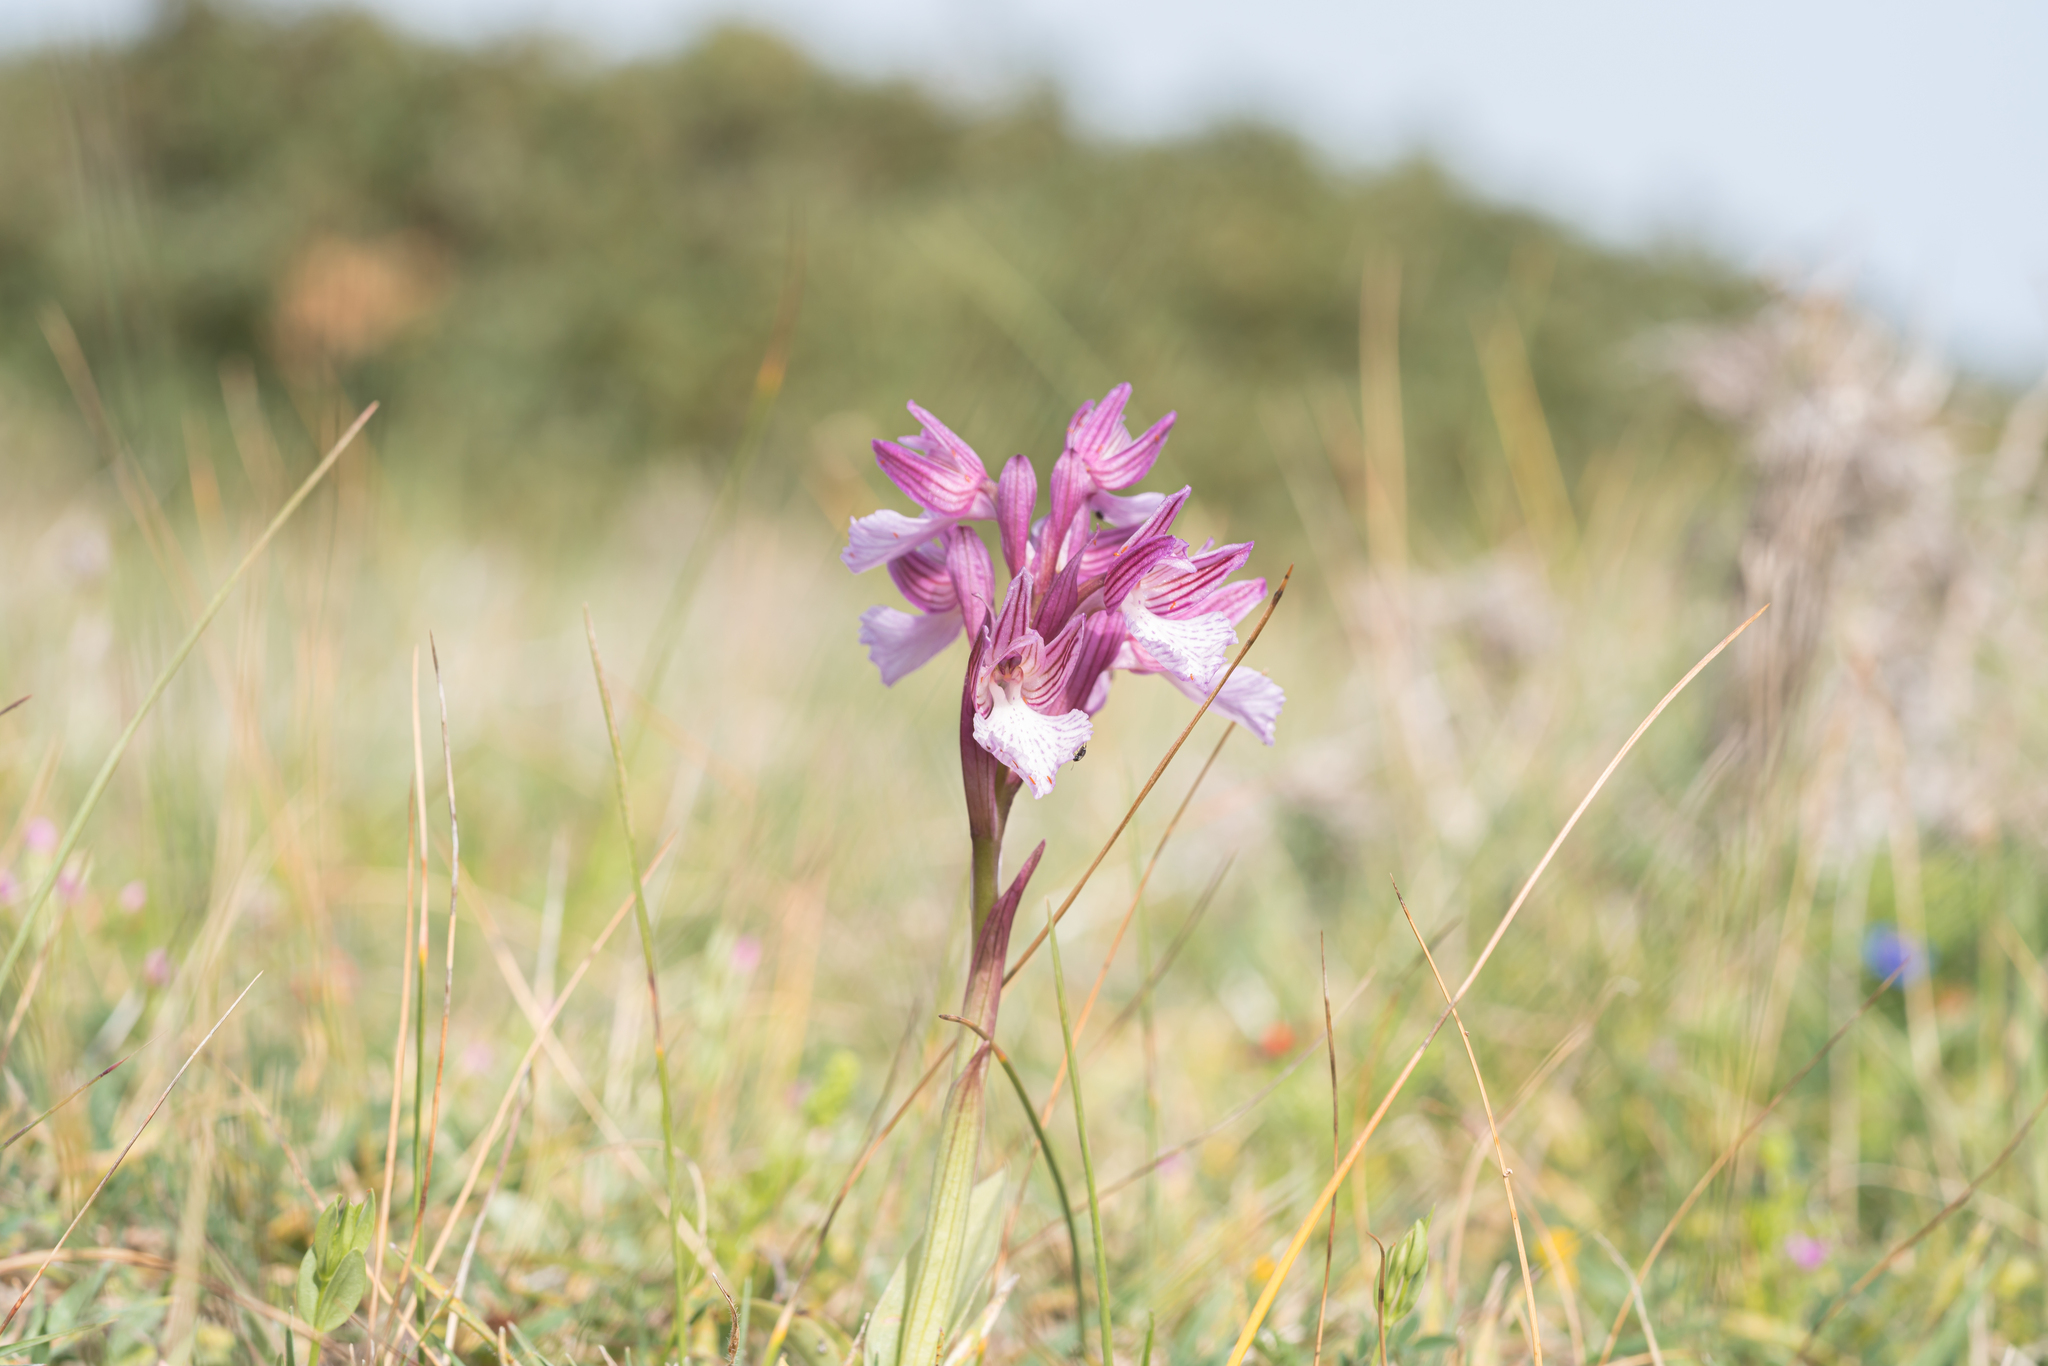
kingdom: Plantae
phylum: Tracheophyta
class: Liliopsida
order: Asparagales
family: Orchidaceae
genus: Anacamptis
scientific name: Anacamptis papilionacea
